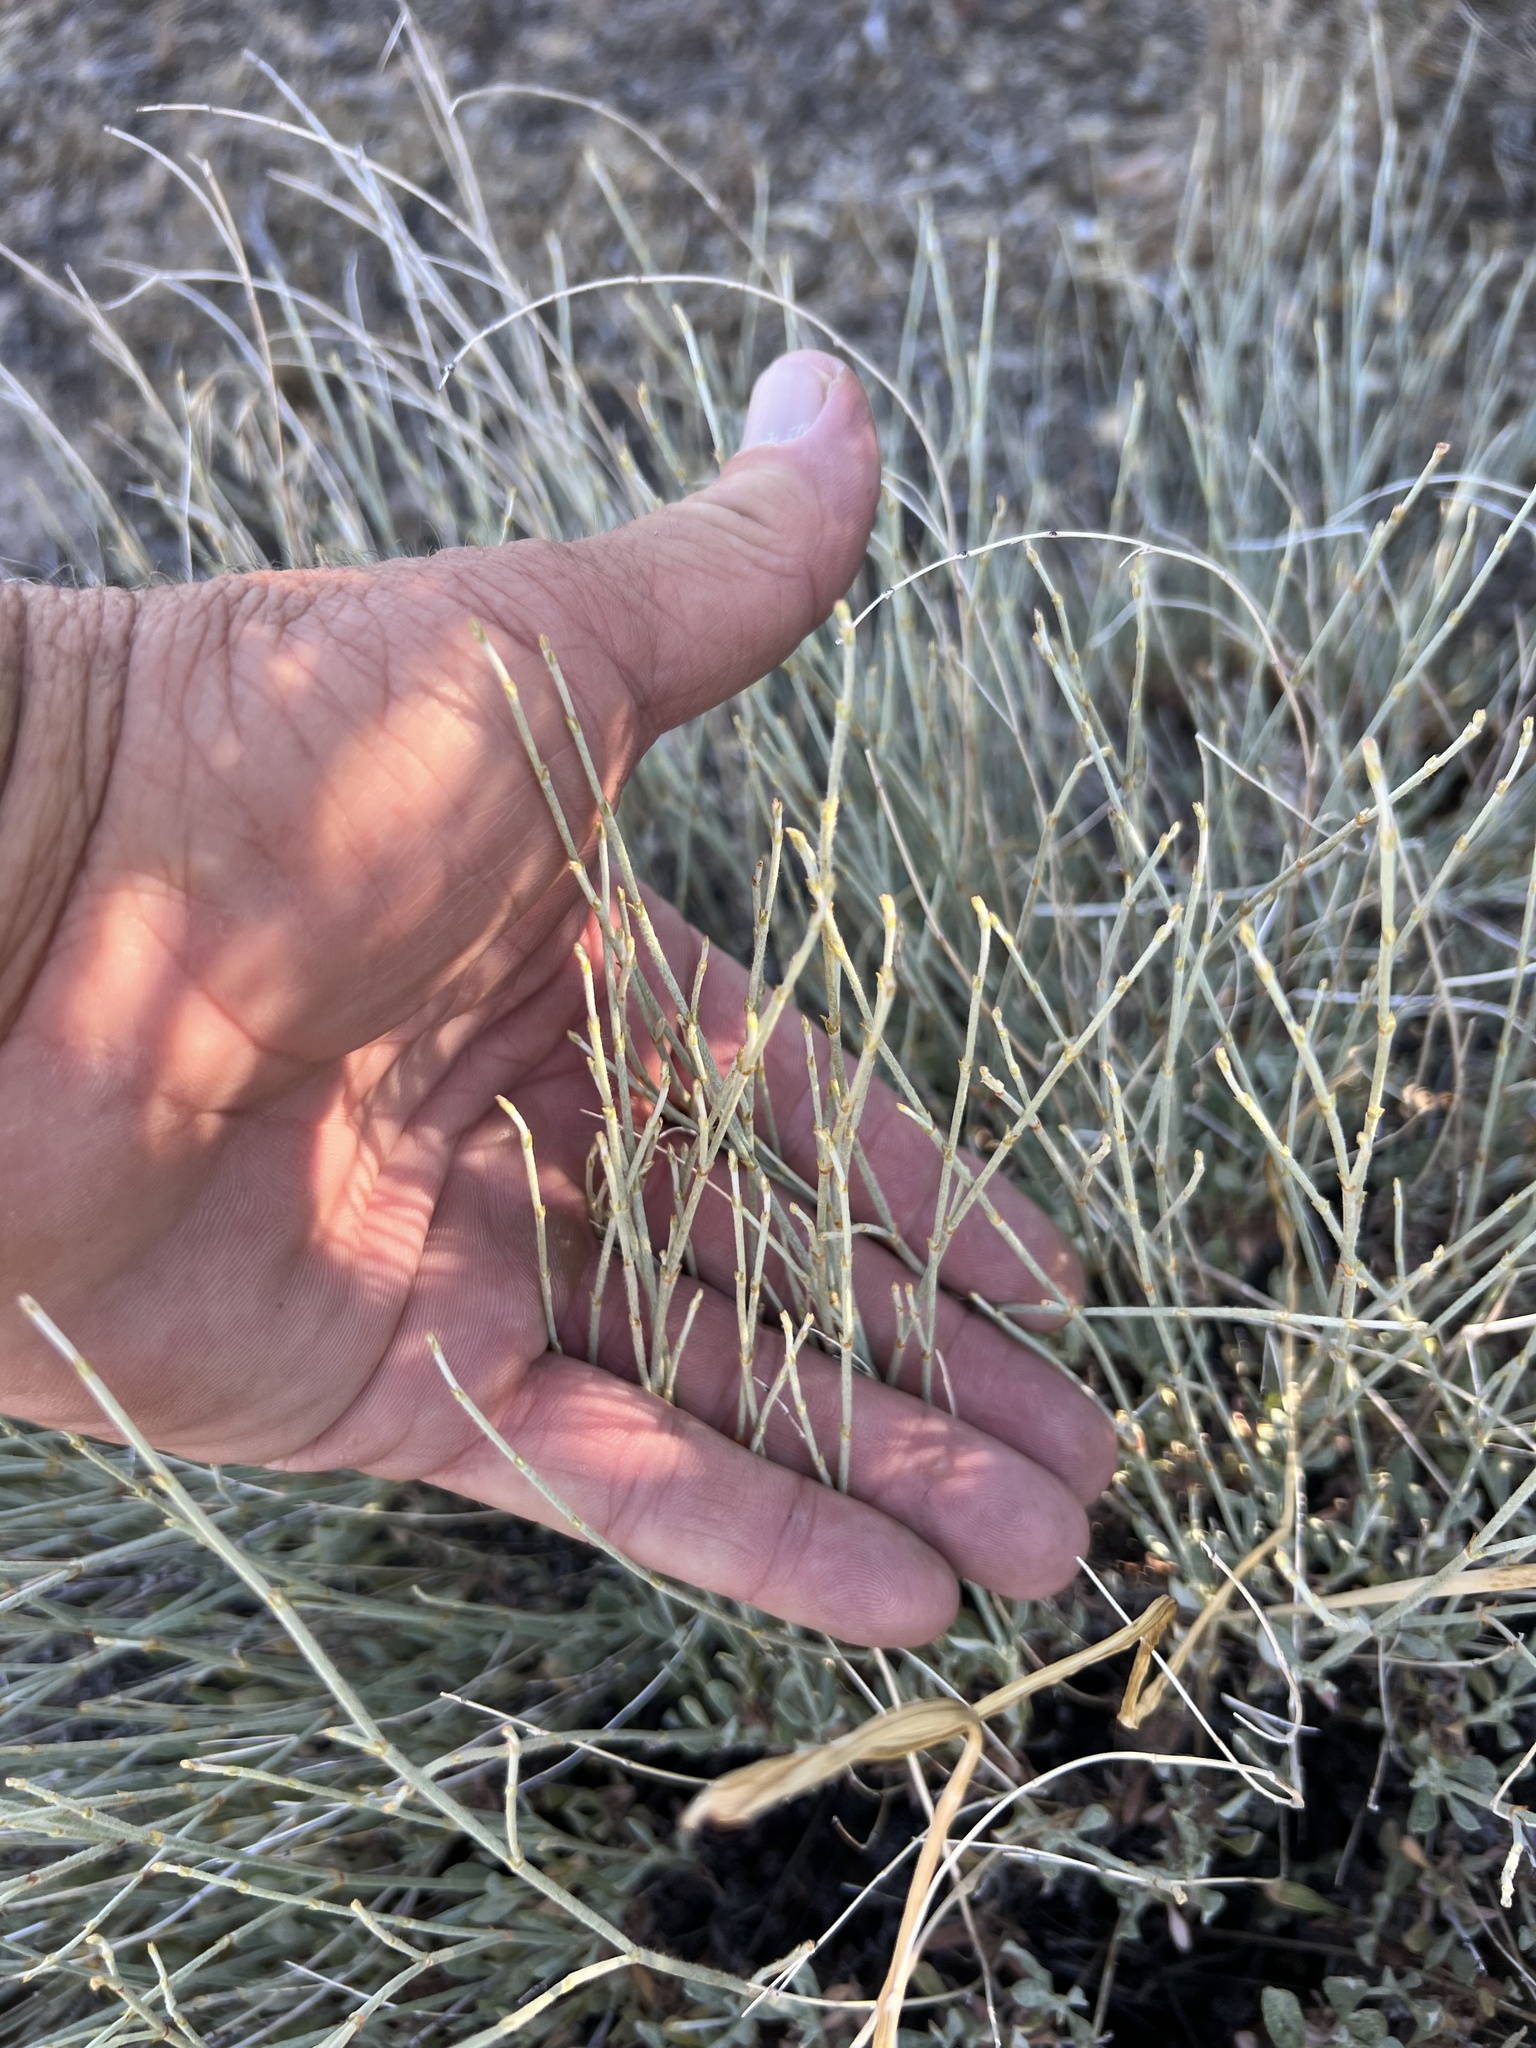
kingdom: Plantae
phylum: Tracheophyta
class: Gnetopsida
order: Ephedrales
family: Ephedraceae
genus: Ephedra
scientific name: Ephedra nevadensis
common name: Gray ephedra
